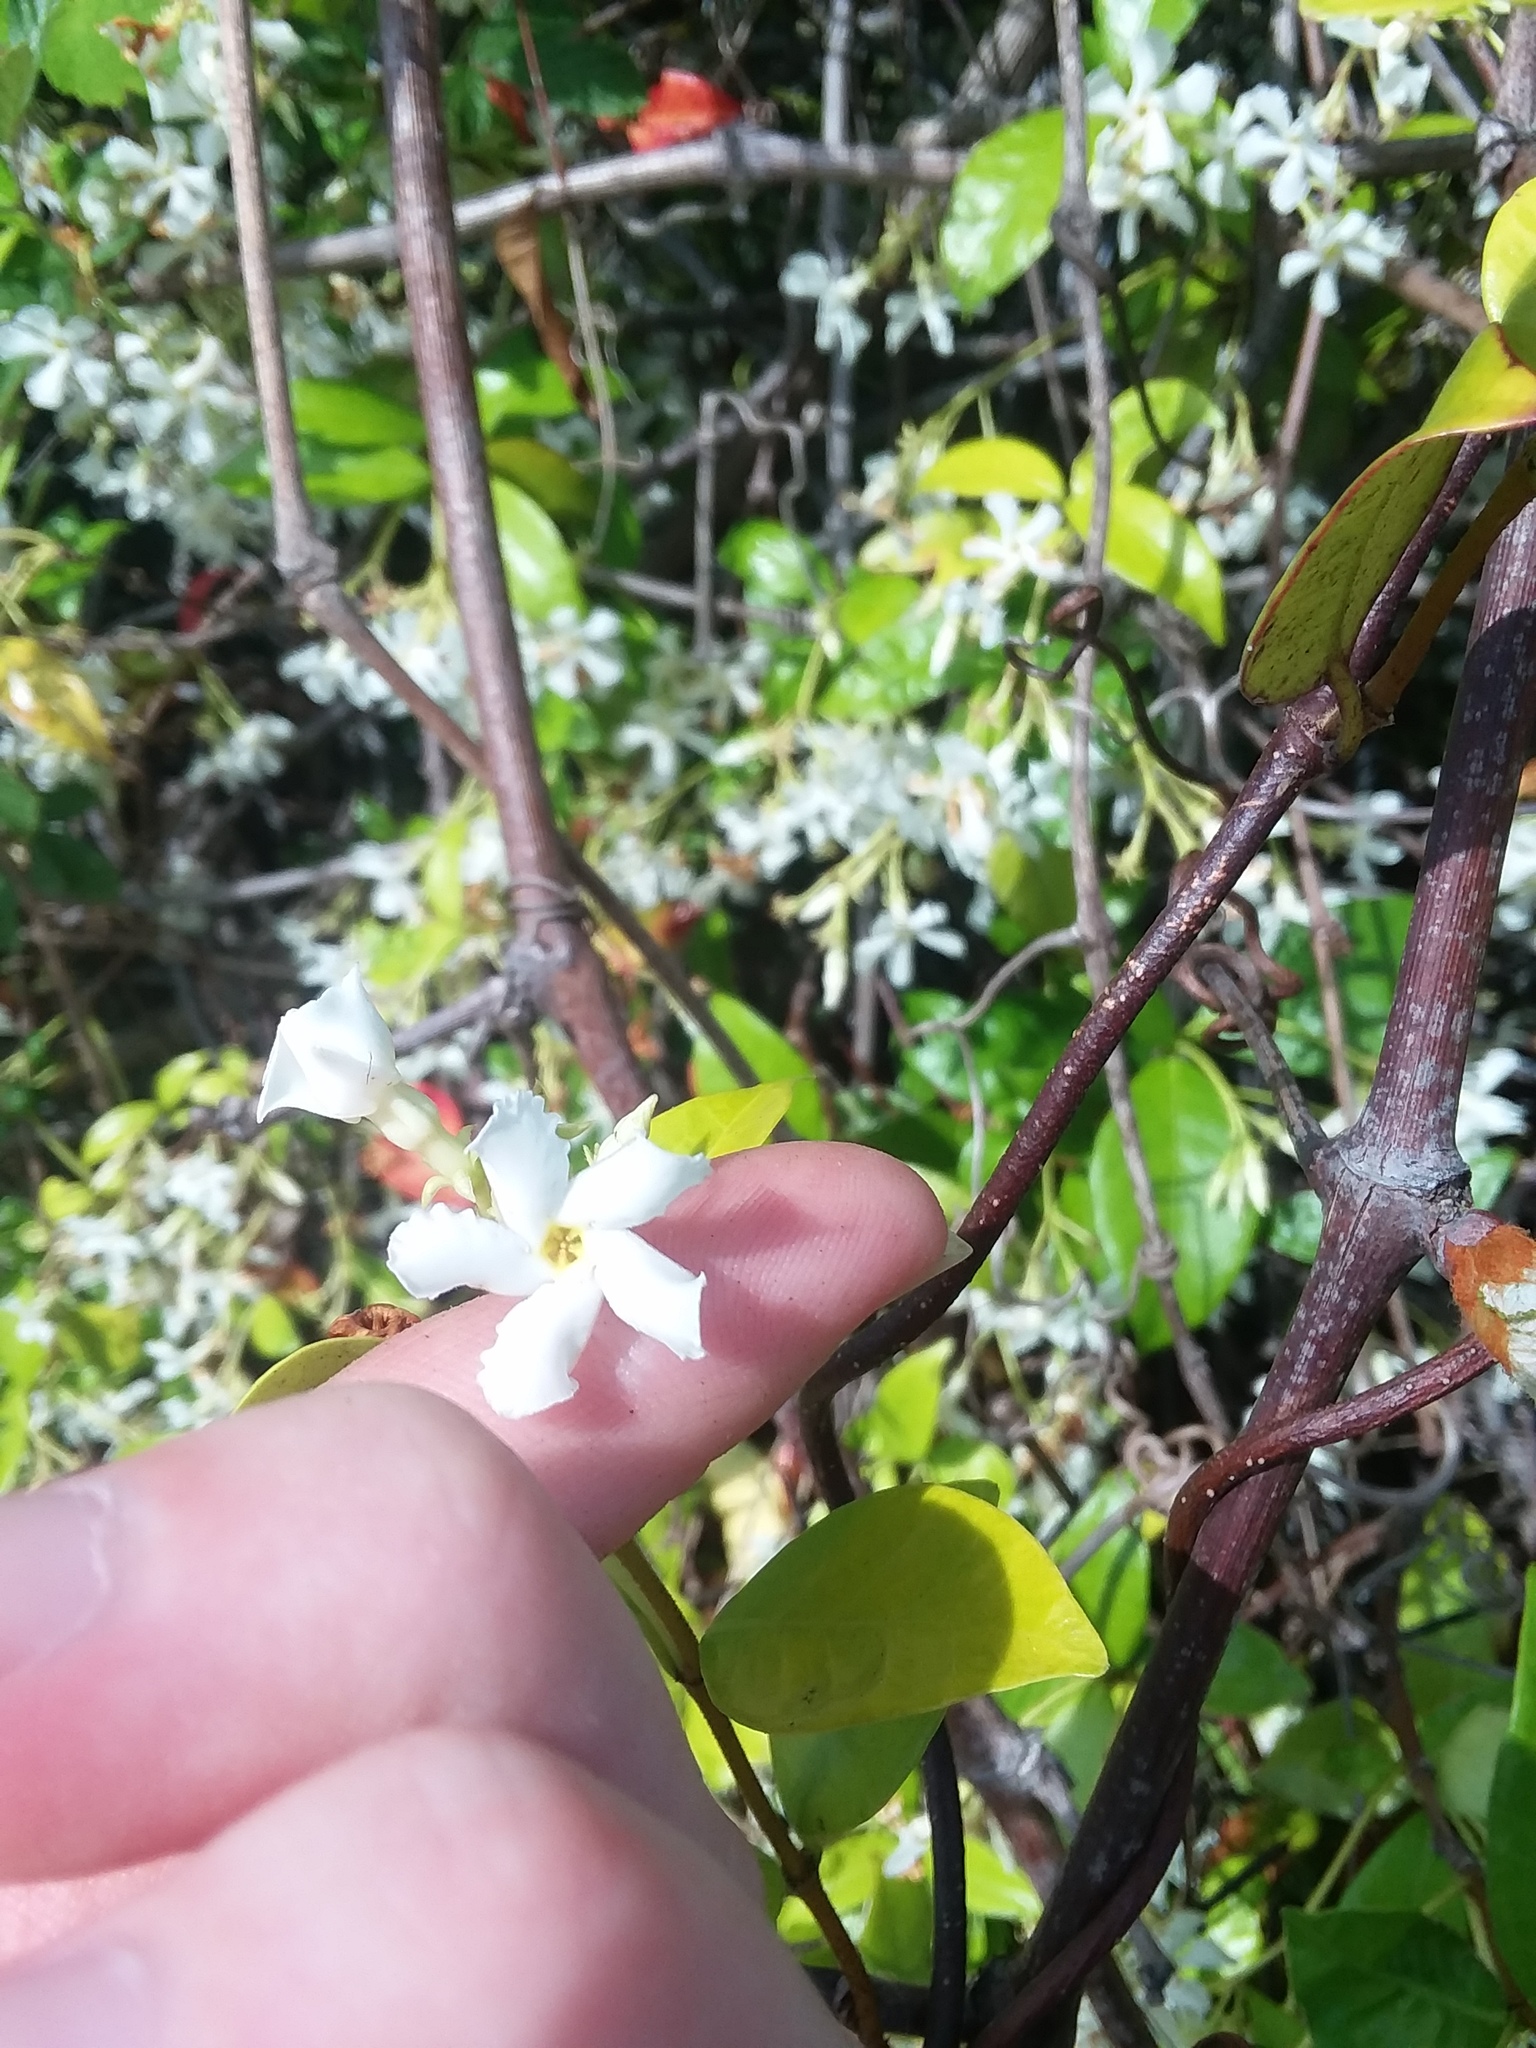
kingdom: Plantae
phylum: Tracheophyta
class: Magnoliopsida
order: Gentianales
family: Apocynaceae
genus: Trachelospermum
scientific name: Trachelospermum jasminoides
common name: Confederate jasmine
